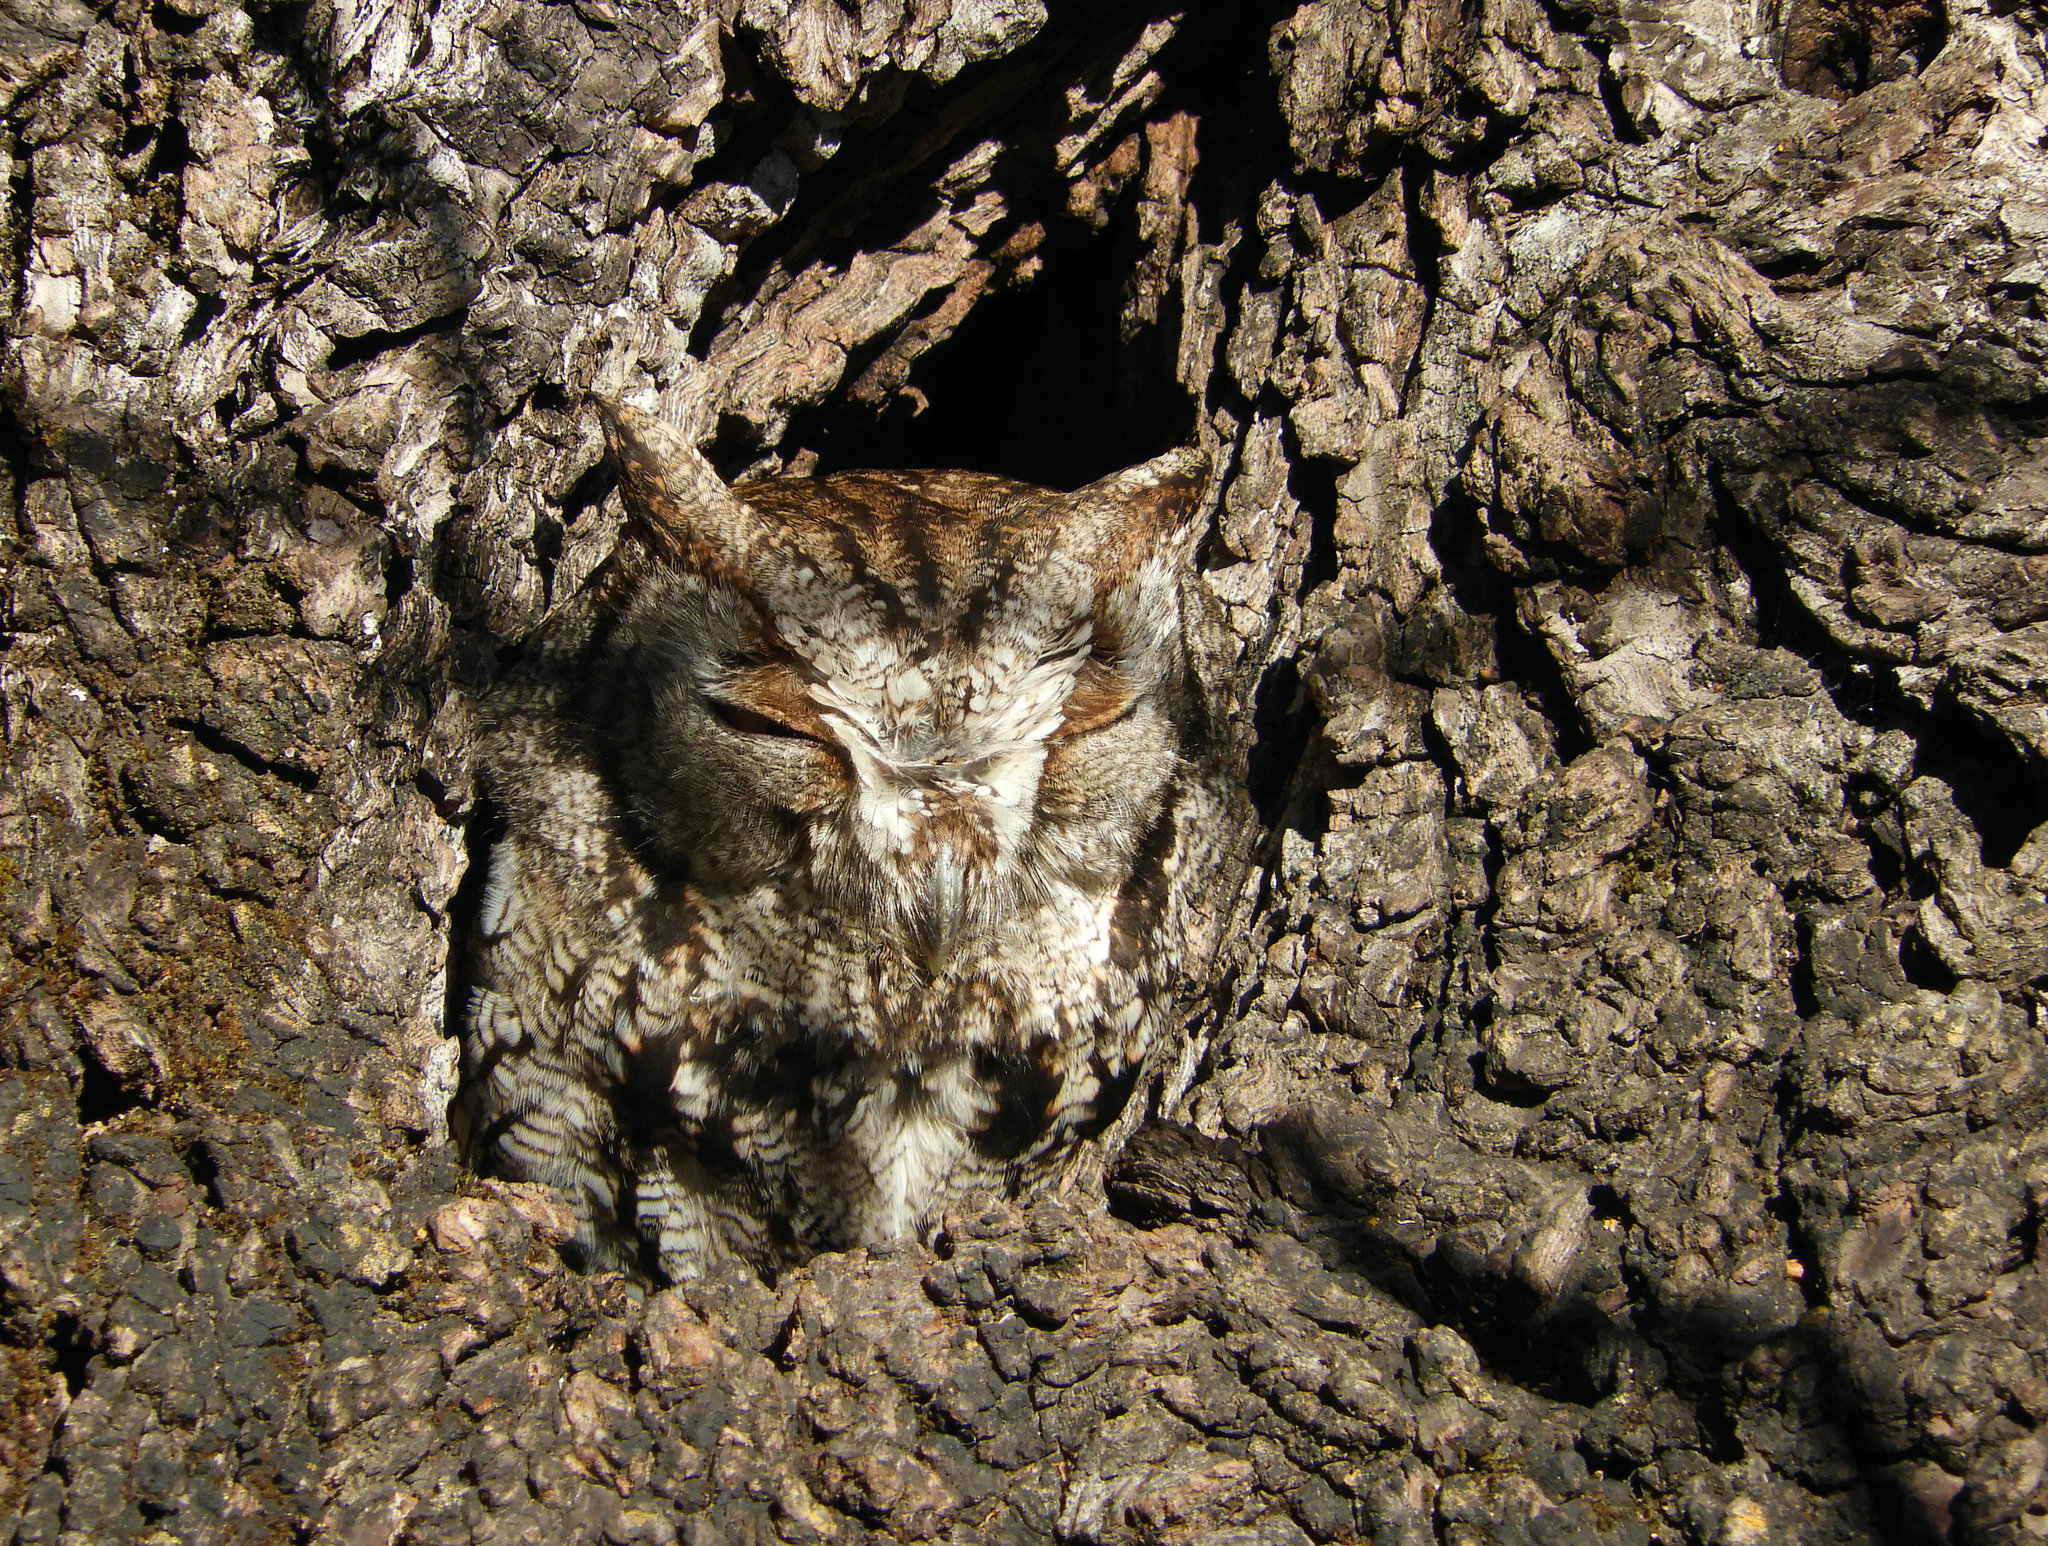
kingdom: Animalia
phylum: Chordata
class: Aves
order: Strigiformes
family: Strigidae
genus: Megascops
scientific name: Megascops kennicottii
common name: Western screech-owl
